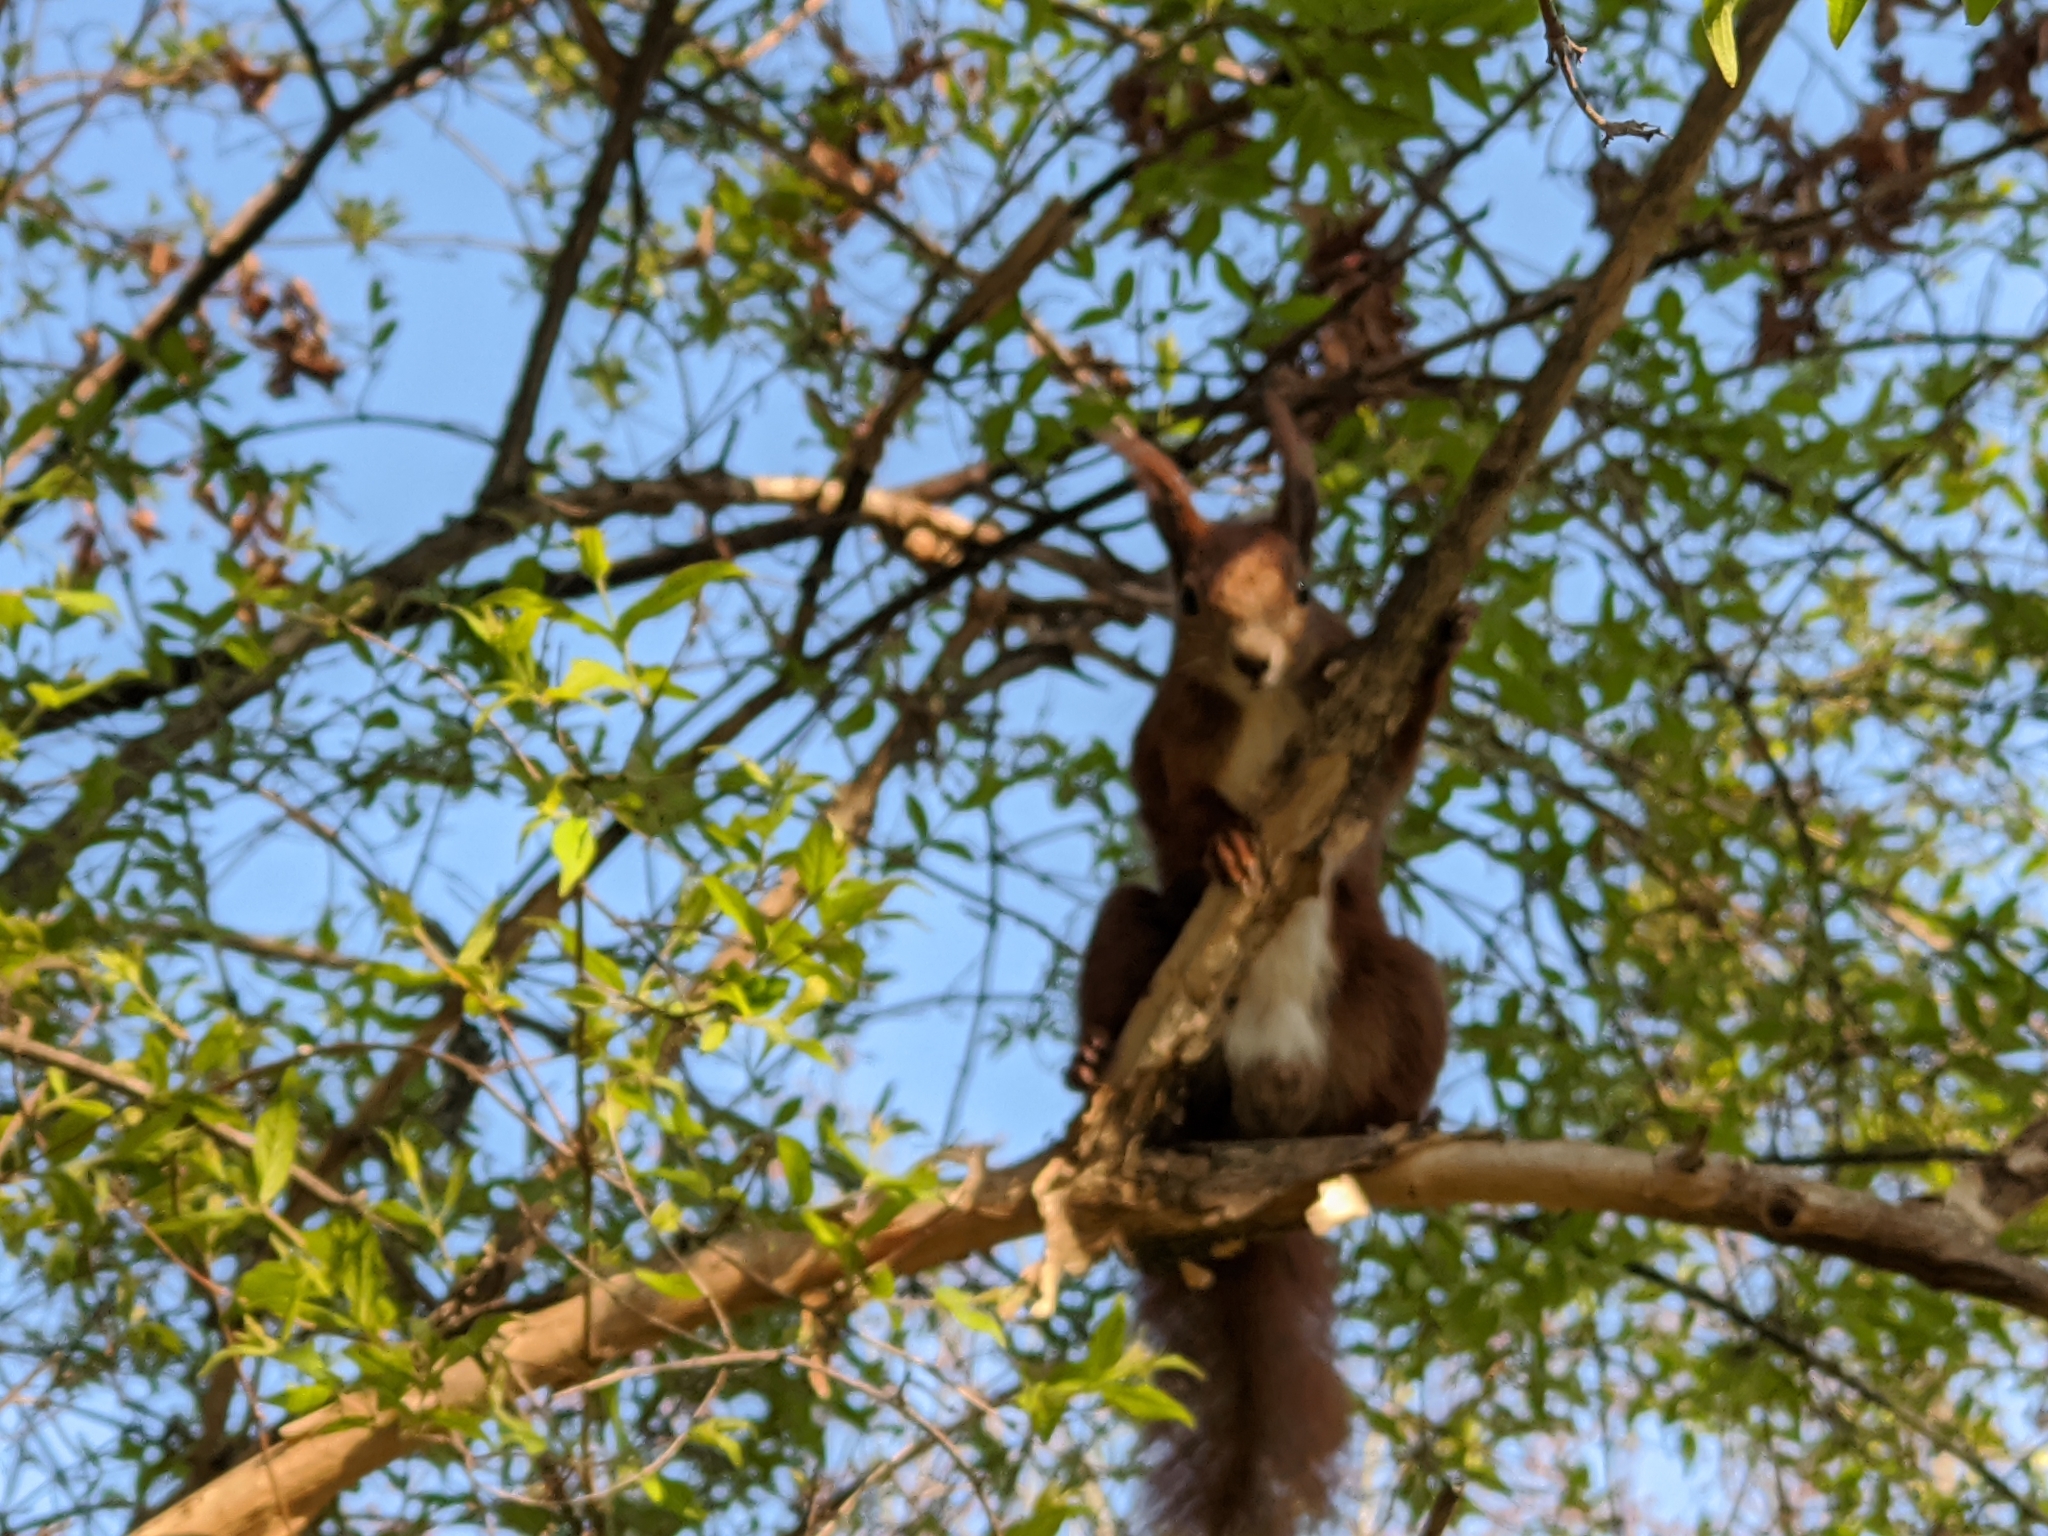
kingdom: Animalia
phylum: Chordata
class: Mammalia
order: Rodentia
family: Sciuridae
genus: Sciurus
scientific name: Sciurus vulgaris
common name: Eurasian red squirrel
